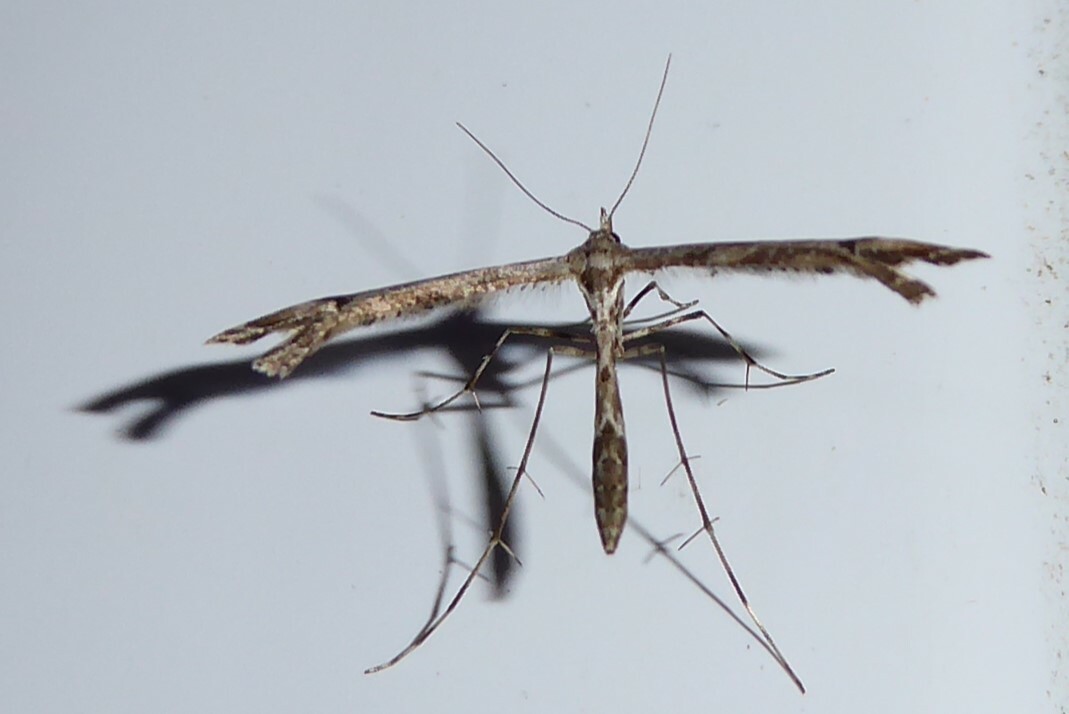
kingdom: Animalia
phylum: Arthropoda
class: Insecta
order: Lepidoptera
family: Pterophoridae
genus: Amblyptilia
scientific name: Amblyptilia repletalis
